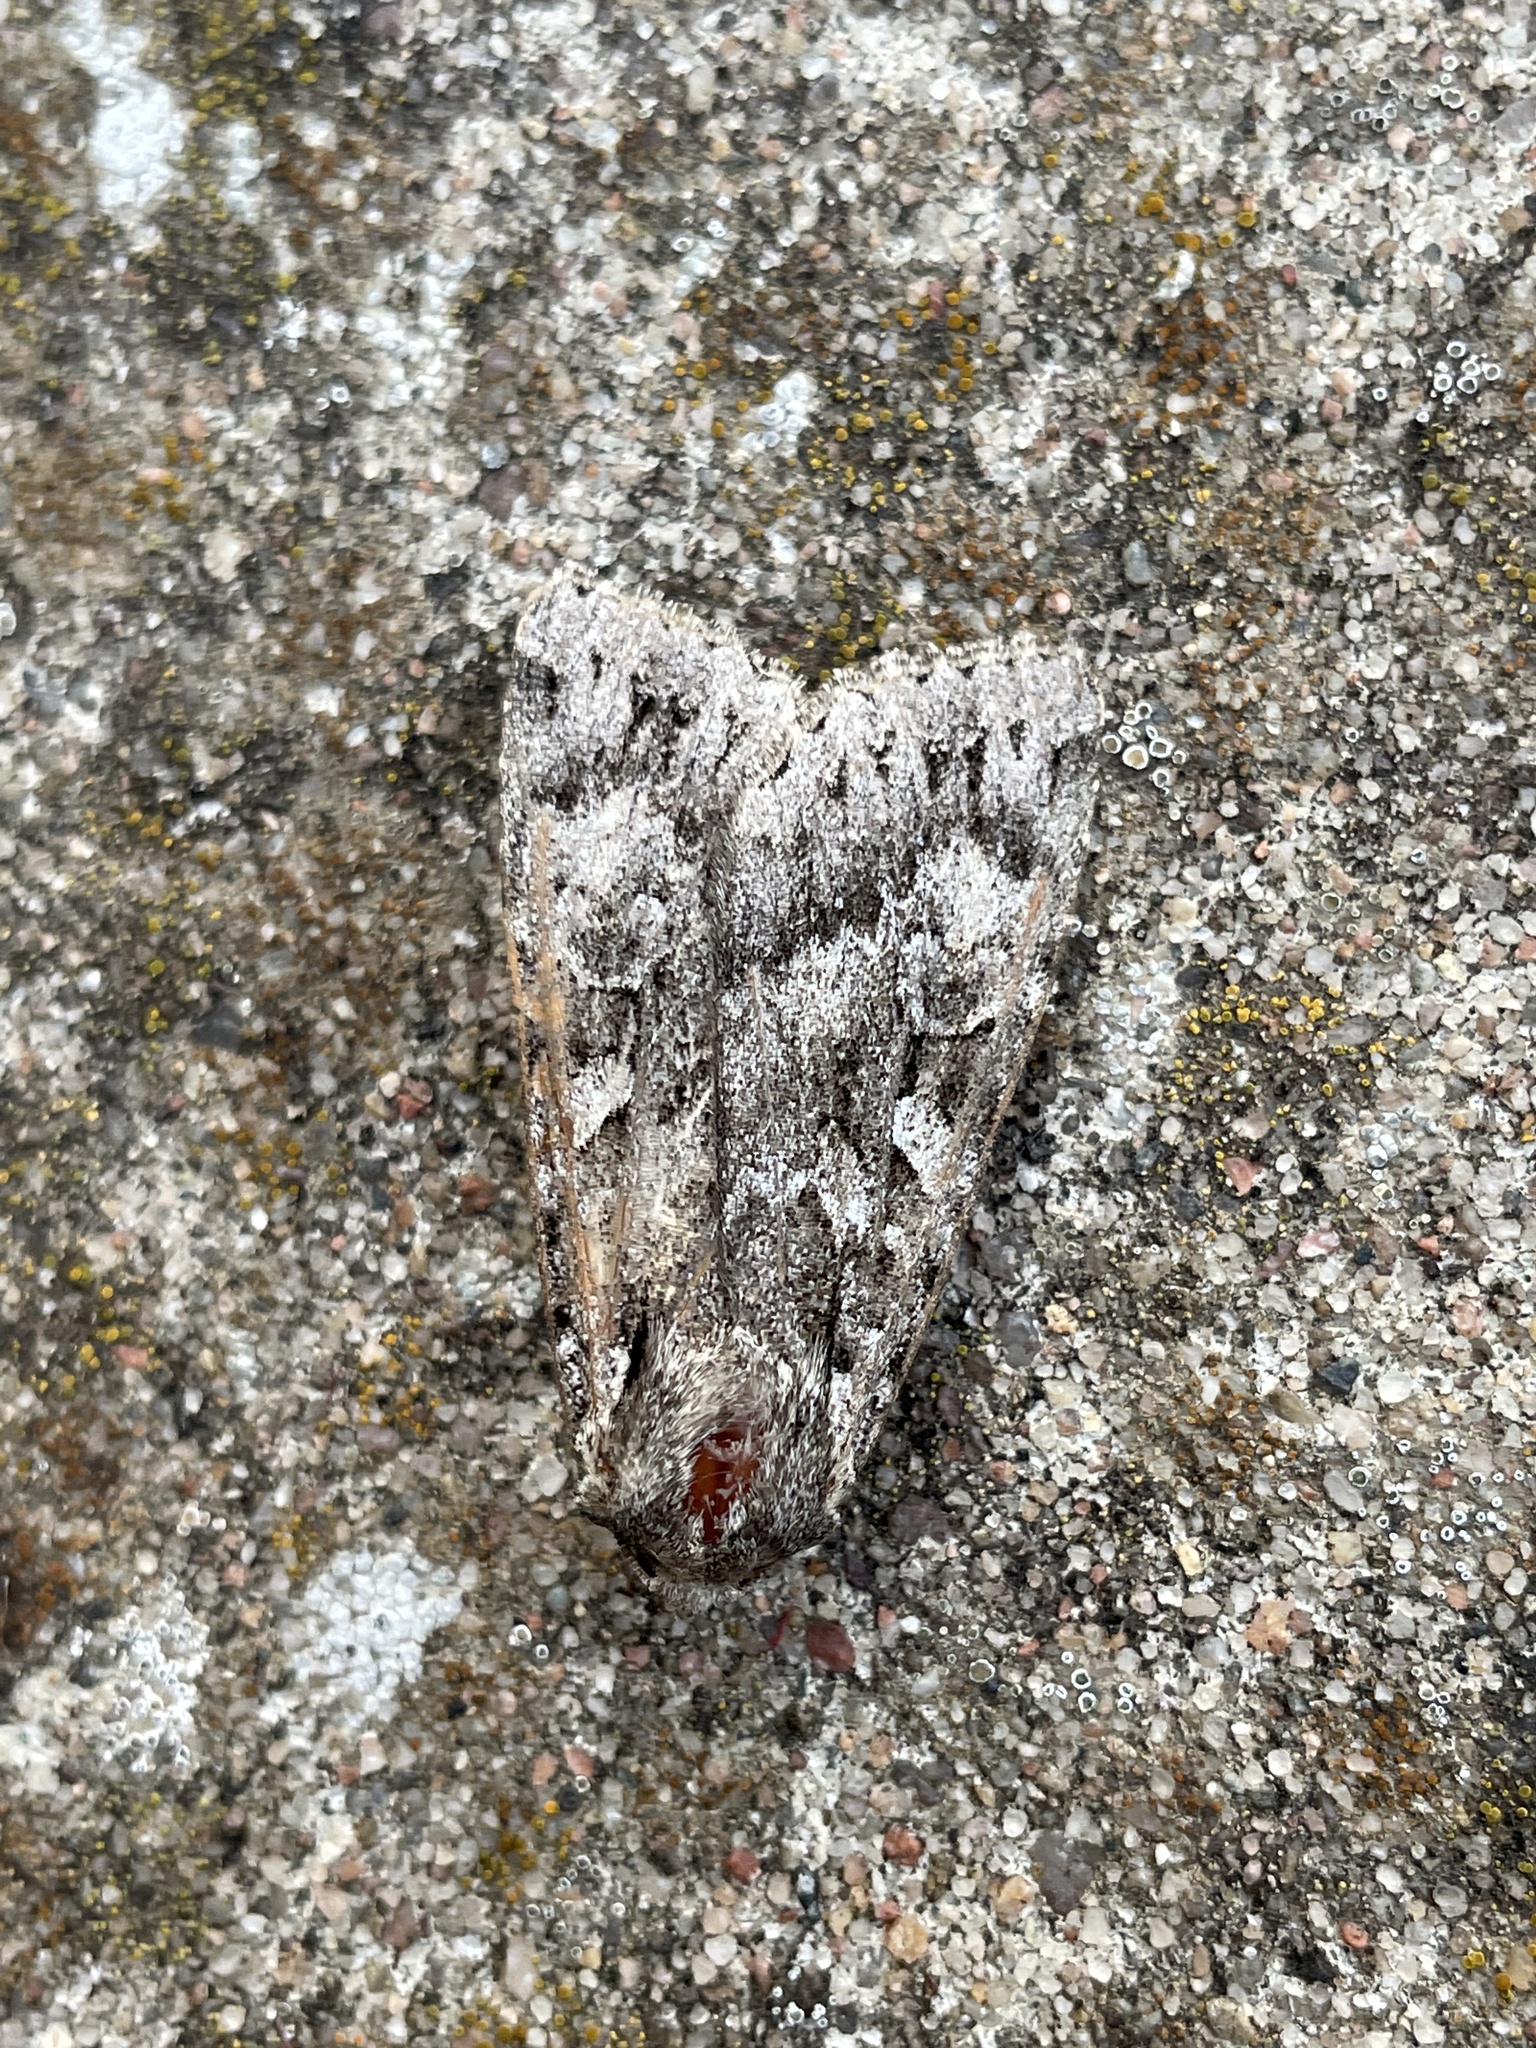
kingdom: Animalia
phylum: Arthropoda
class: Insecta
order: Lepidoptera
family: Noctuidae
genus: Eurois
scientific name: Eurois occulta
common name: Great brocade
